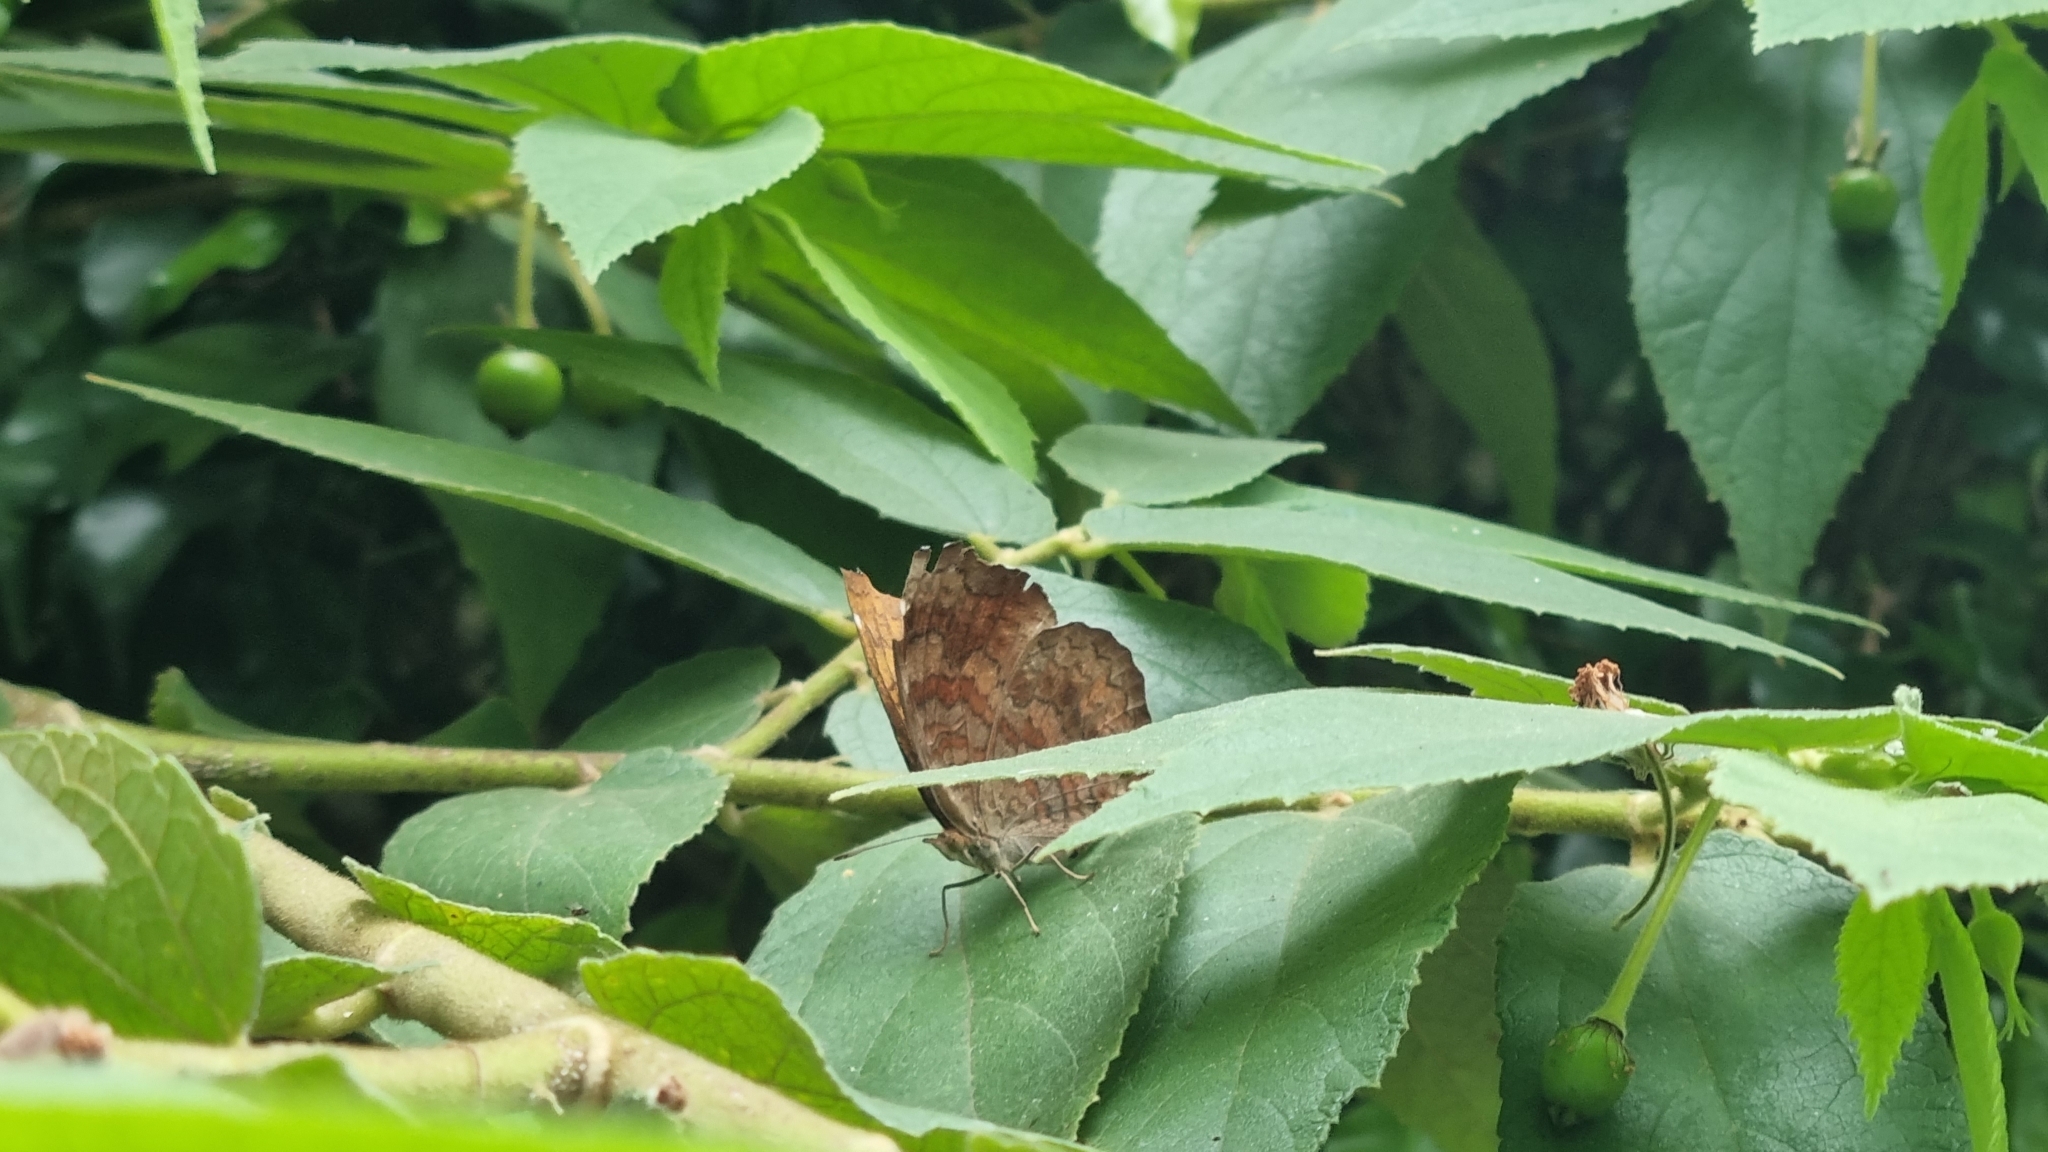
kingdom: Animalia
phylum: Arthropoda
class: Insecta
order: Lepidoptera
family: Nymphalidae
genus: Ariadne
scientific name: Ariadne merione
